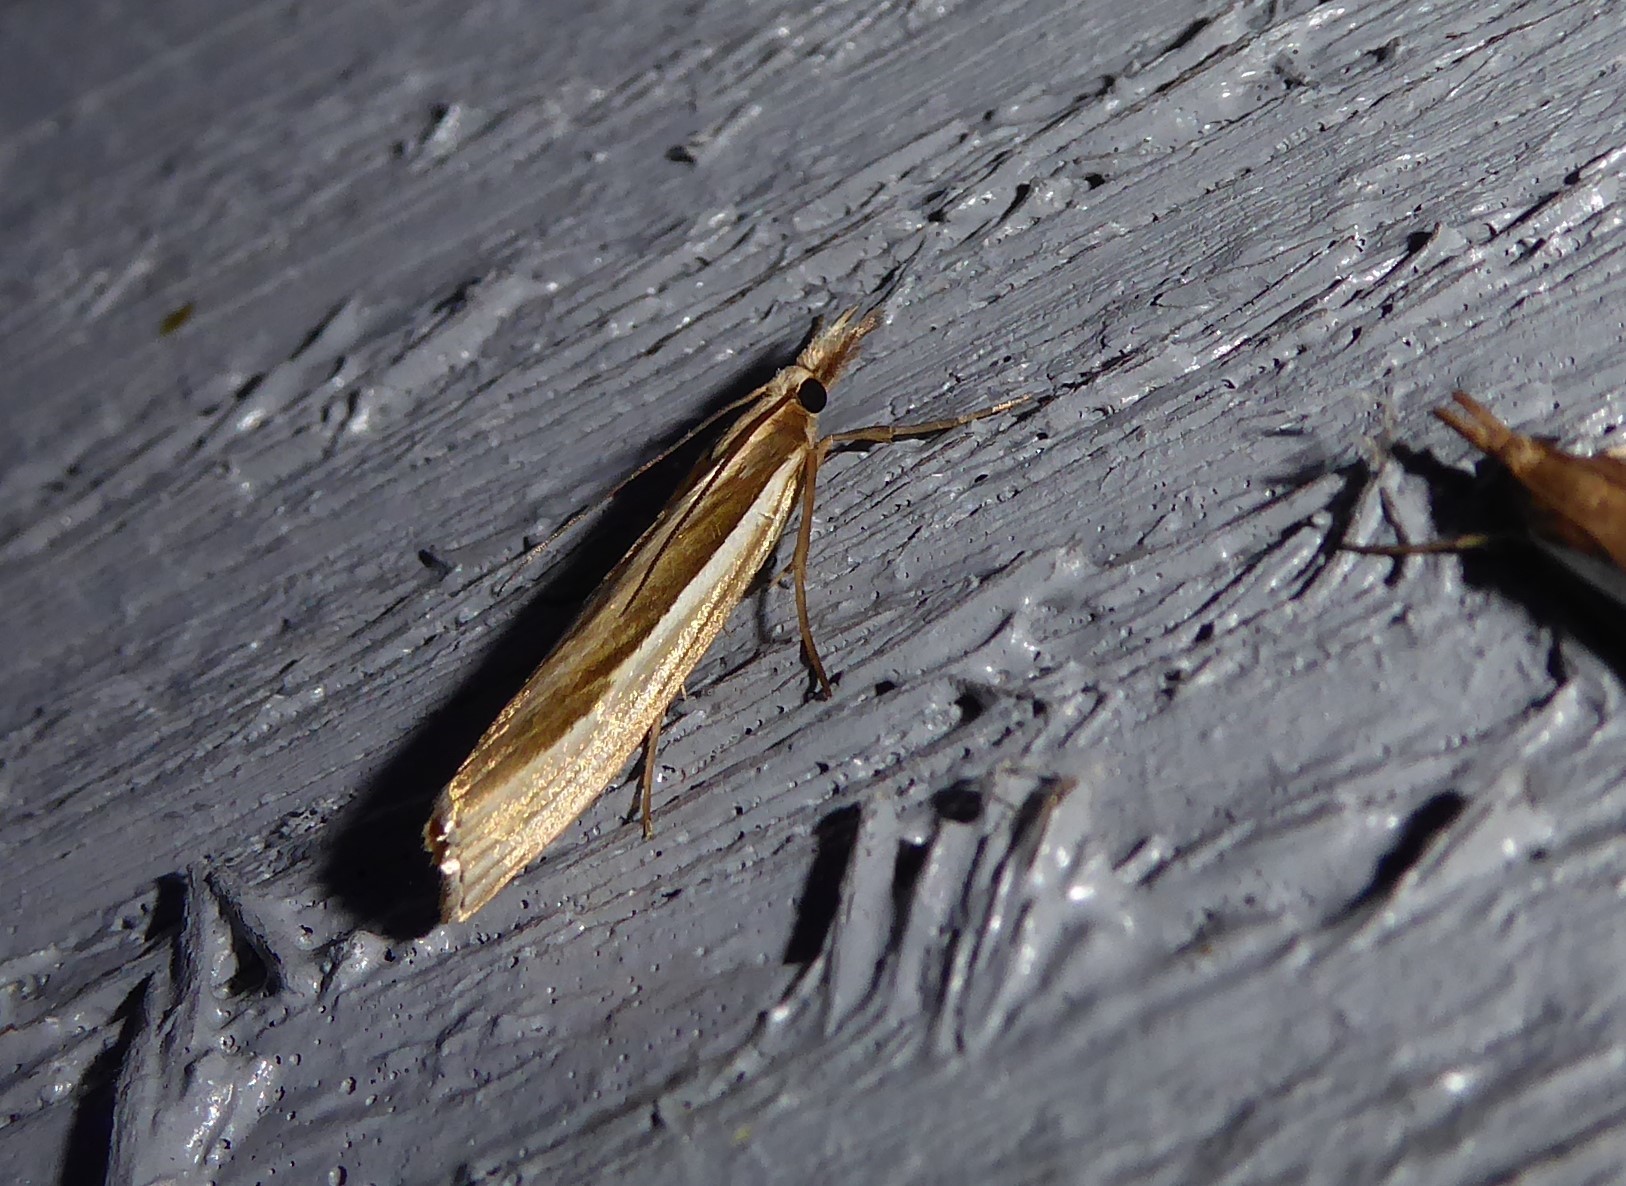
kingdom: Animalia
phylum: Arthropoda
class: Insecta
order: Lepidoptera
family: Crambidae
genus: Orocrambus
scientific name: Orocrambus ramosellus
